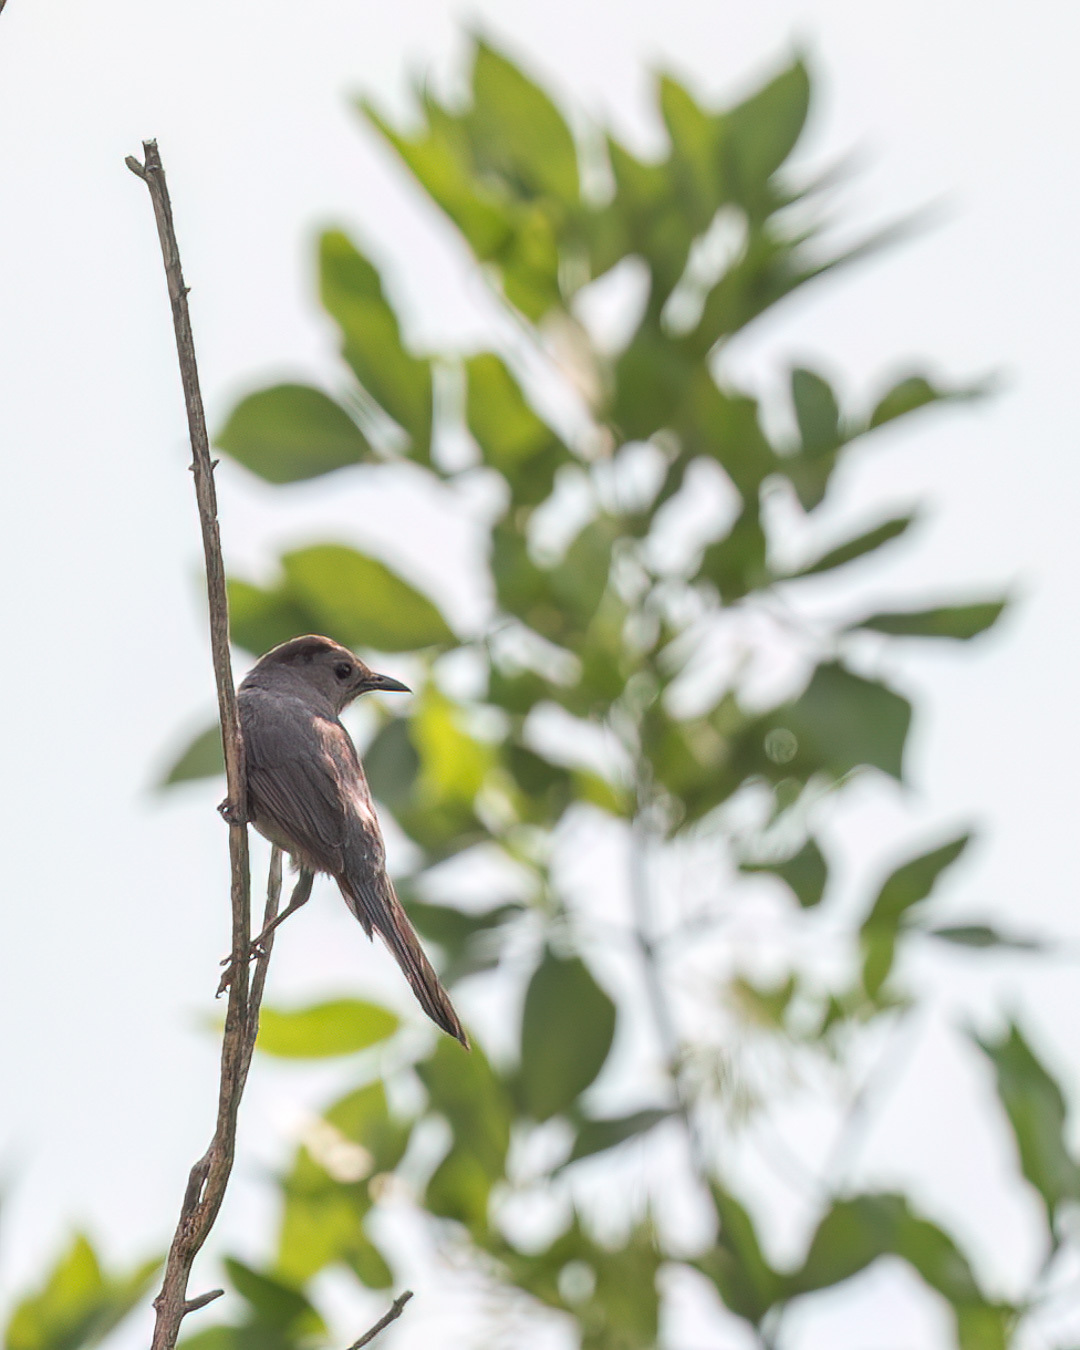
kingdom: Animalia
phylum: Chordata
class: Aves
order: Passeriformes
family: Mimidae
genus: Dumetella
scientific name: Dumetella carolinensis
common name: Gray catbird
